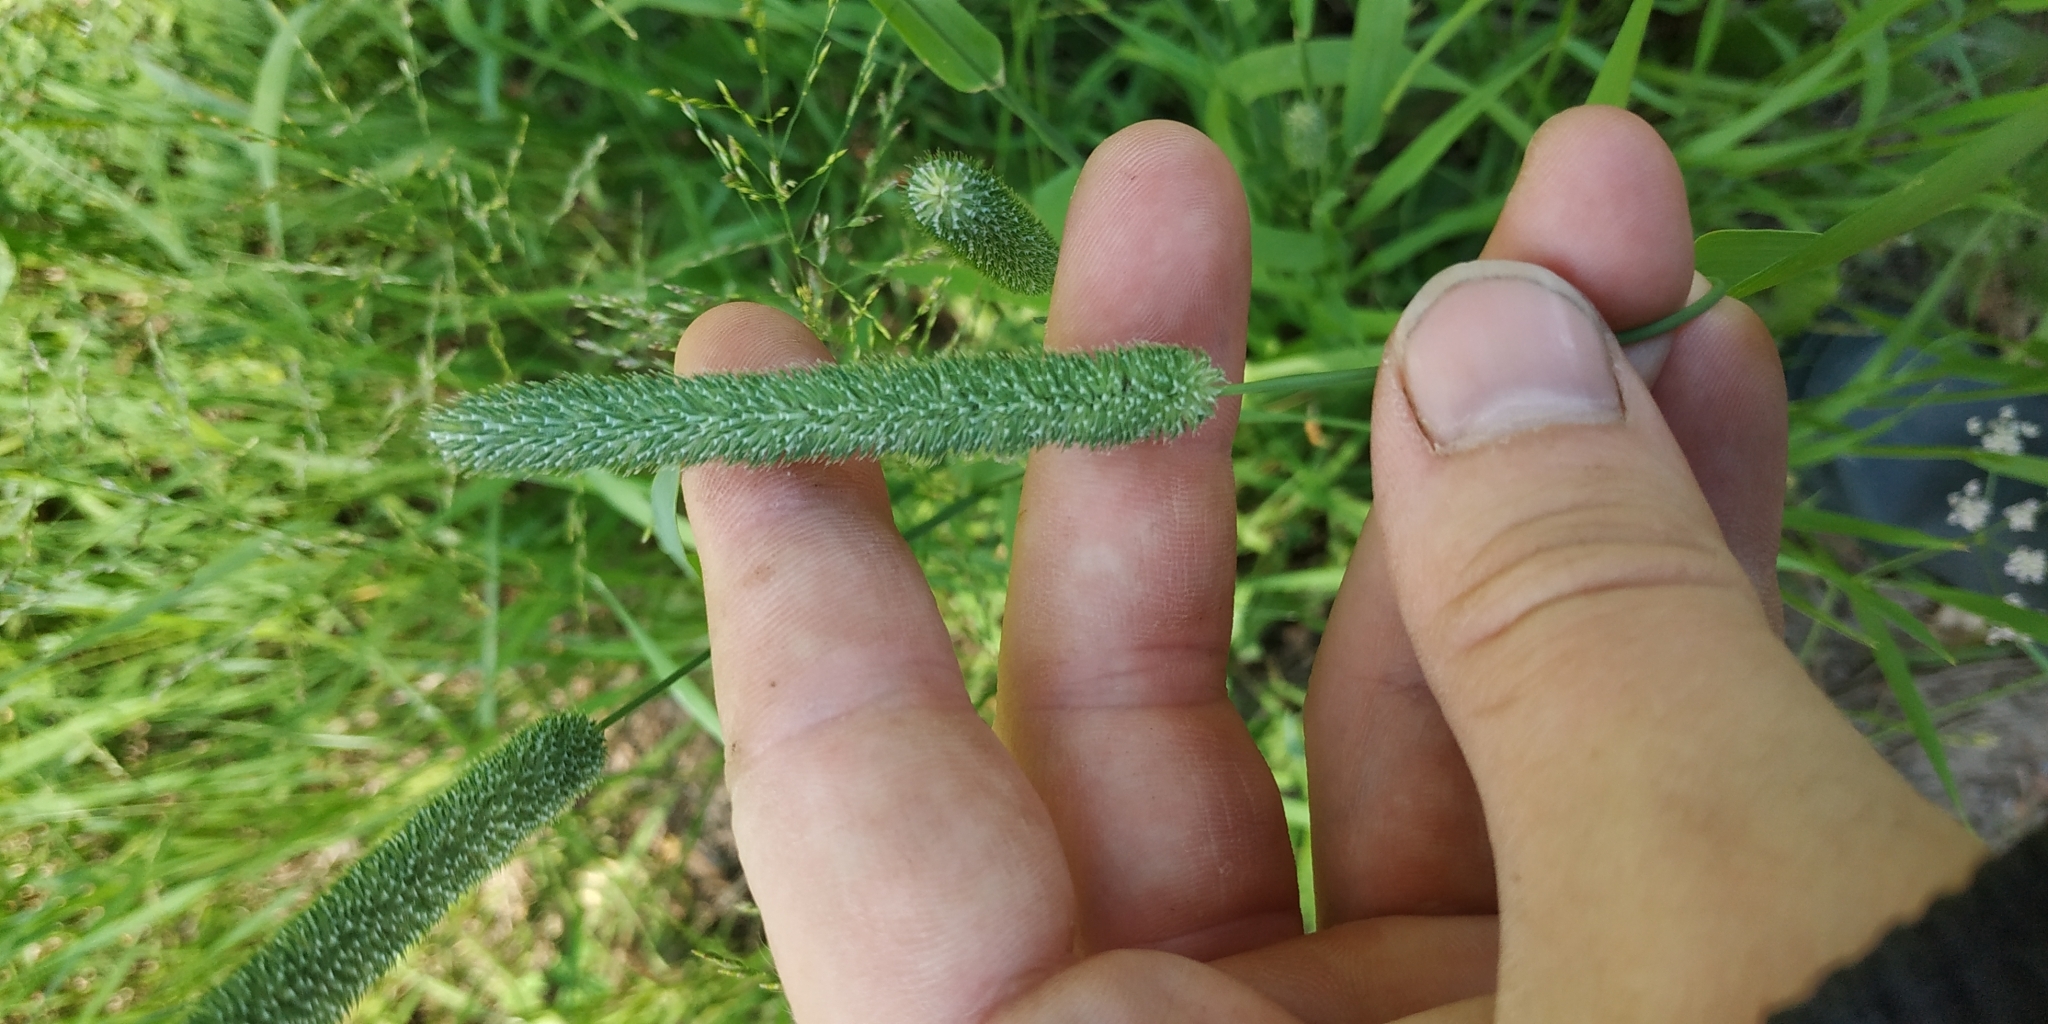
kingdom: Plantae
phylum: Tracheophyta
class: Liliopsida
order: Poales
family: Poaceae
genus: Phleum
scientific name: Phleum pratense
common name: Timothy grass
